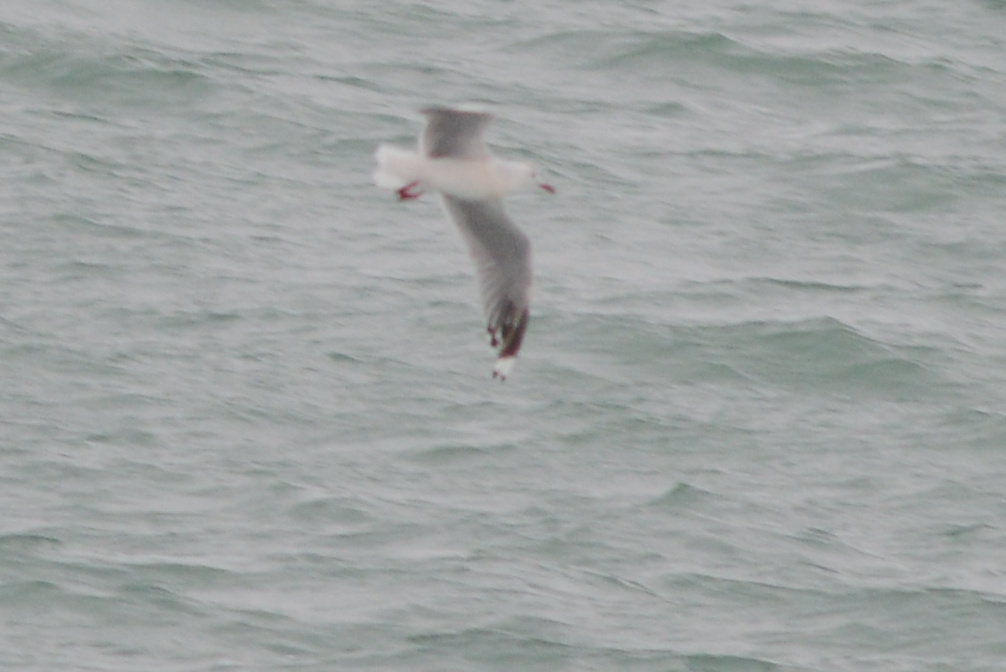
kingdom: Animalia
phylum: Chordata
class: Aves
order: Charadriiformes
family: Laridae
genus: Chroicocephalus
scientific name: Chroicocephalus novaehollandiae
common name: Silver gull
